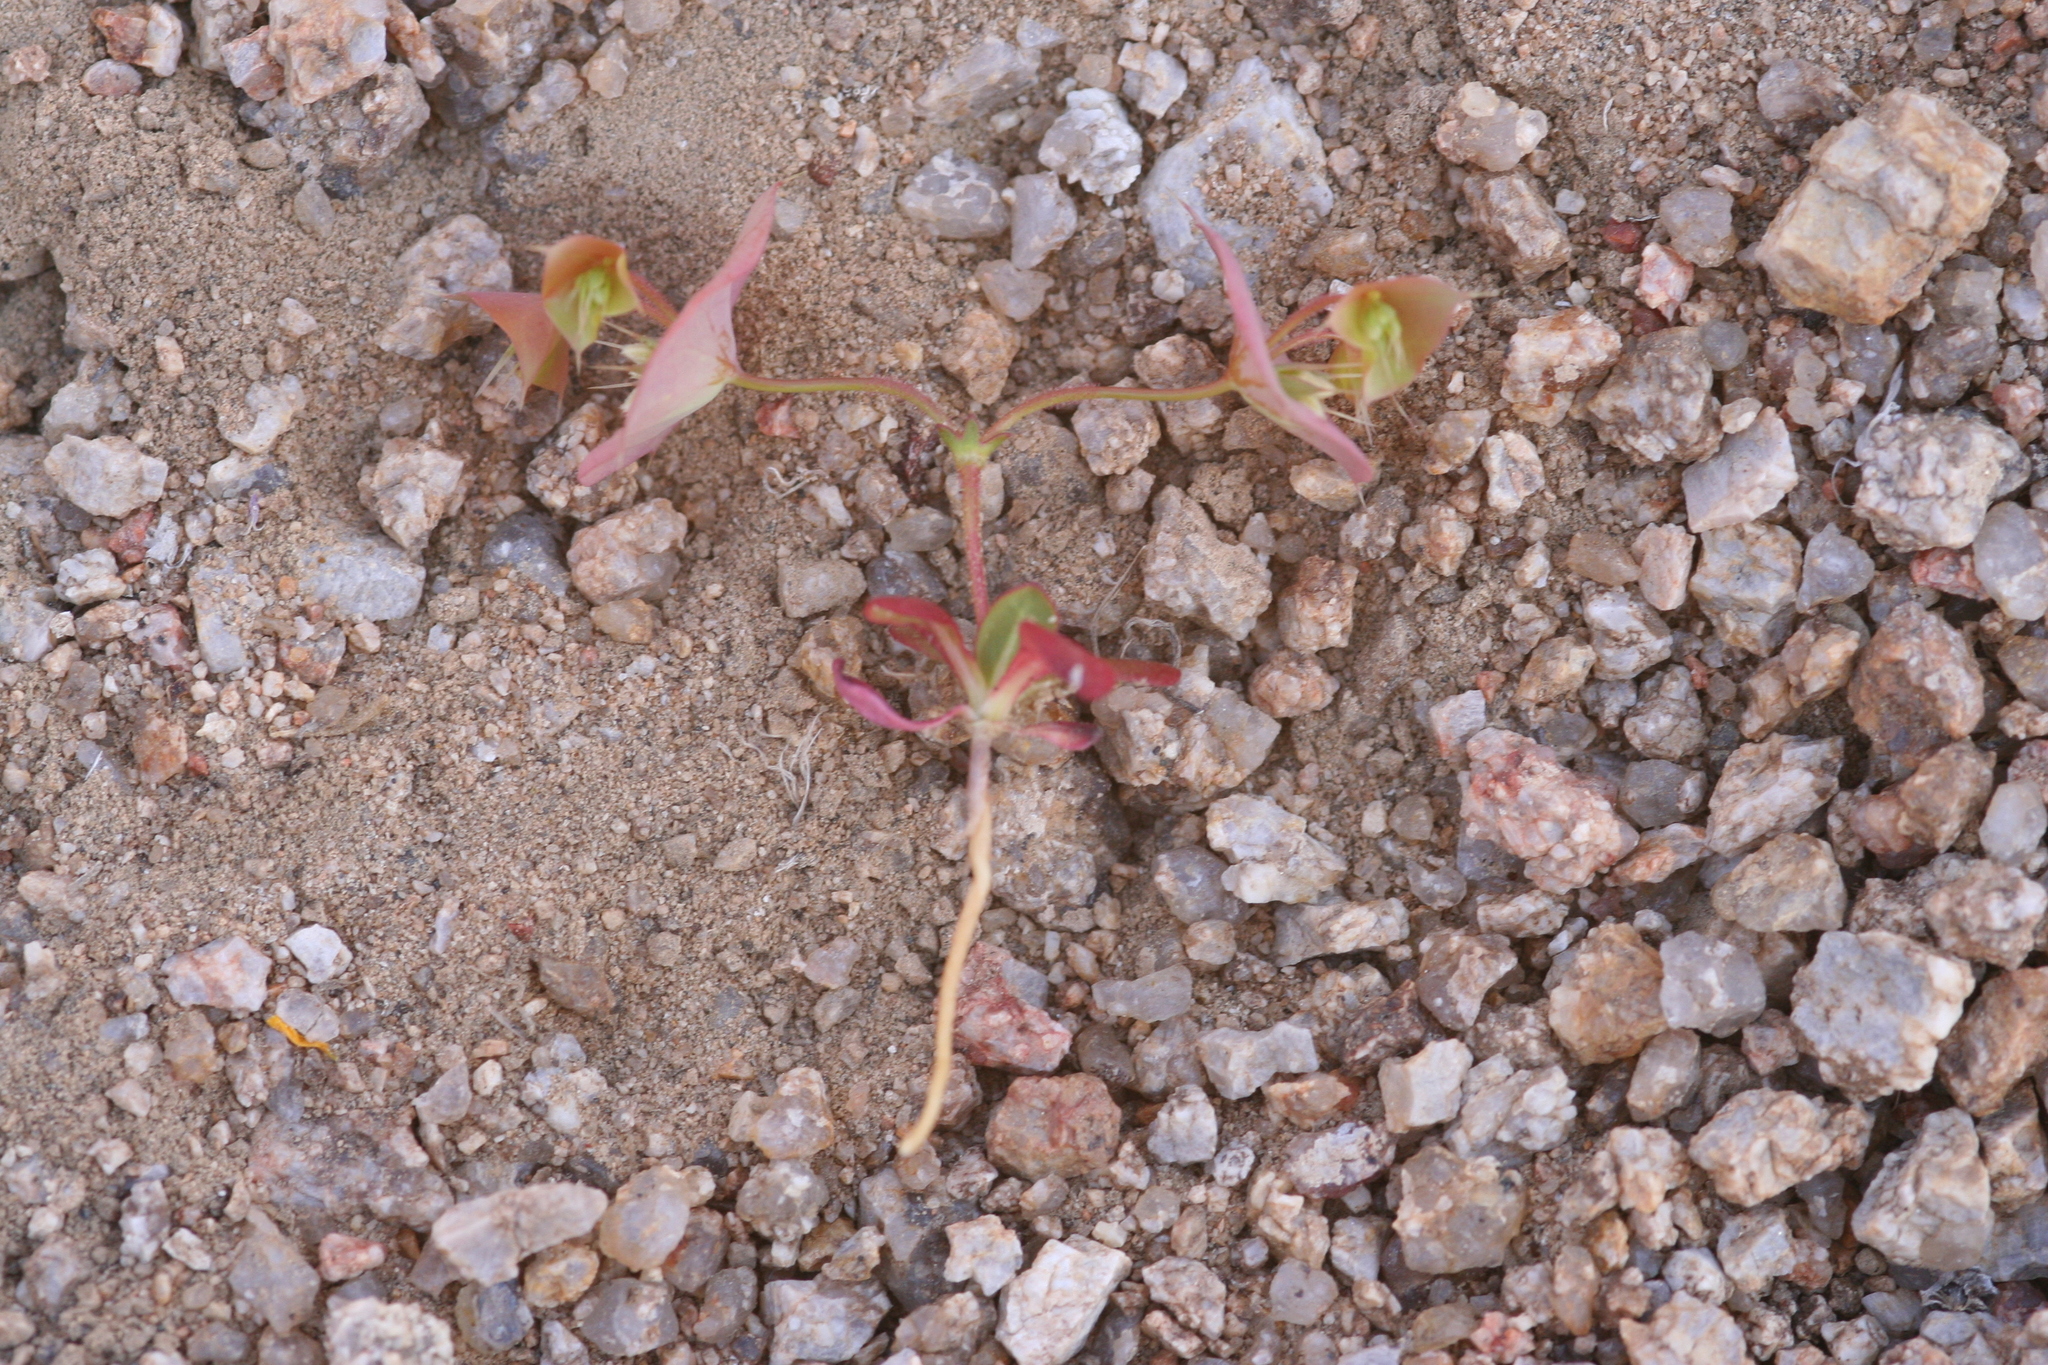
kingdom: Plantae
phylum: Tracheophyta
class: Magnoliopsida
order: Caryophyllales
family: Polygonaceae
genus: Oxytheca
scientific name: Oxytheca perfoliata
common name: Round-leaf puncturebract
